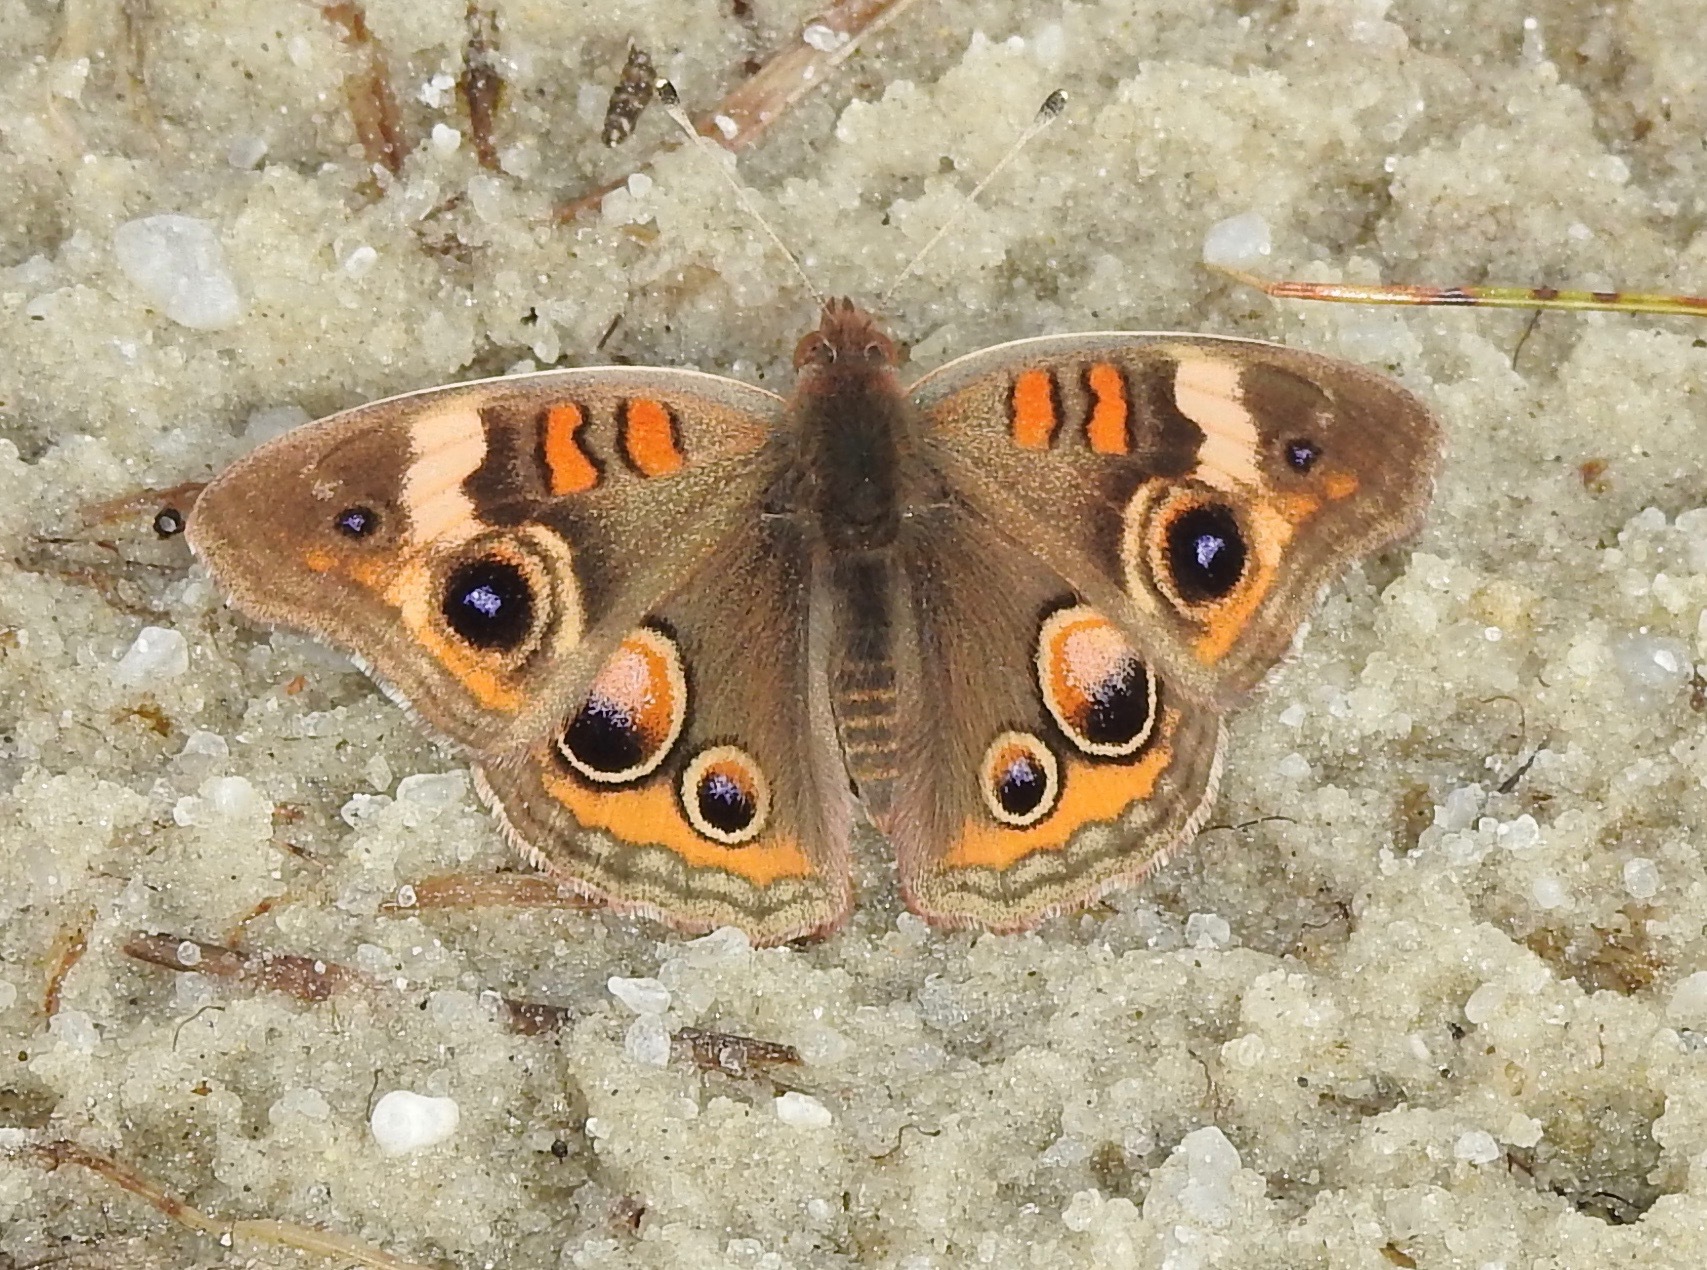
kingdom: Animalia
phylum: Arthropoda
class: Insecta
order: Lepidoptera
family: Nymphalidae
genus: Junonia
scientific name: Junonia coenia
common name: Common buckeye
